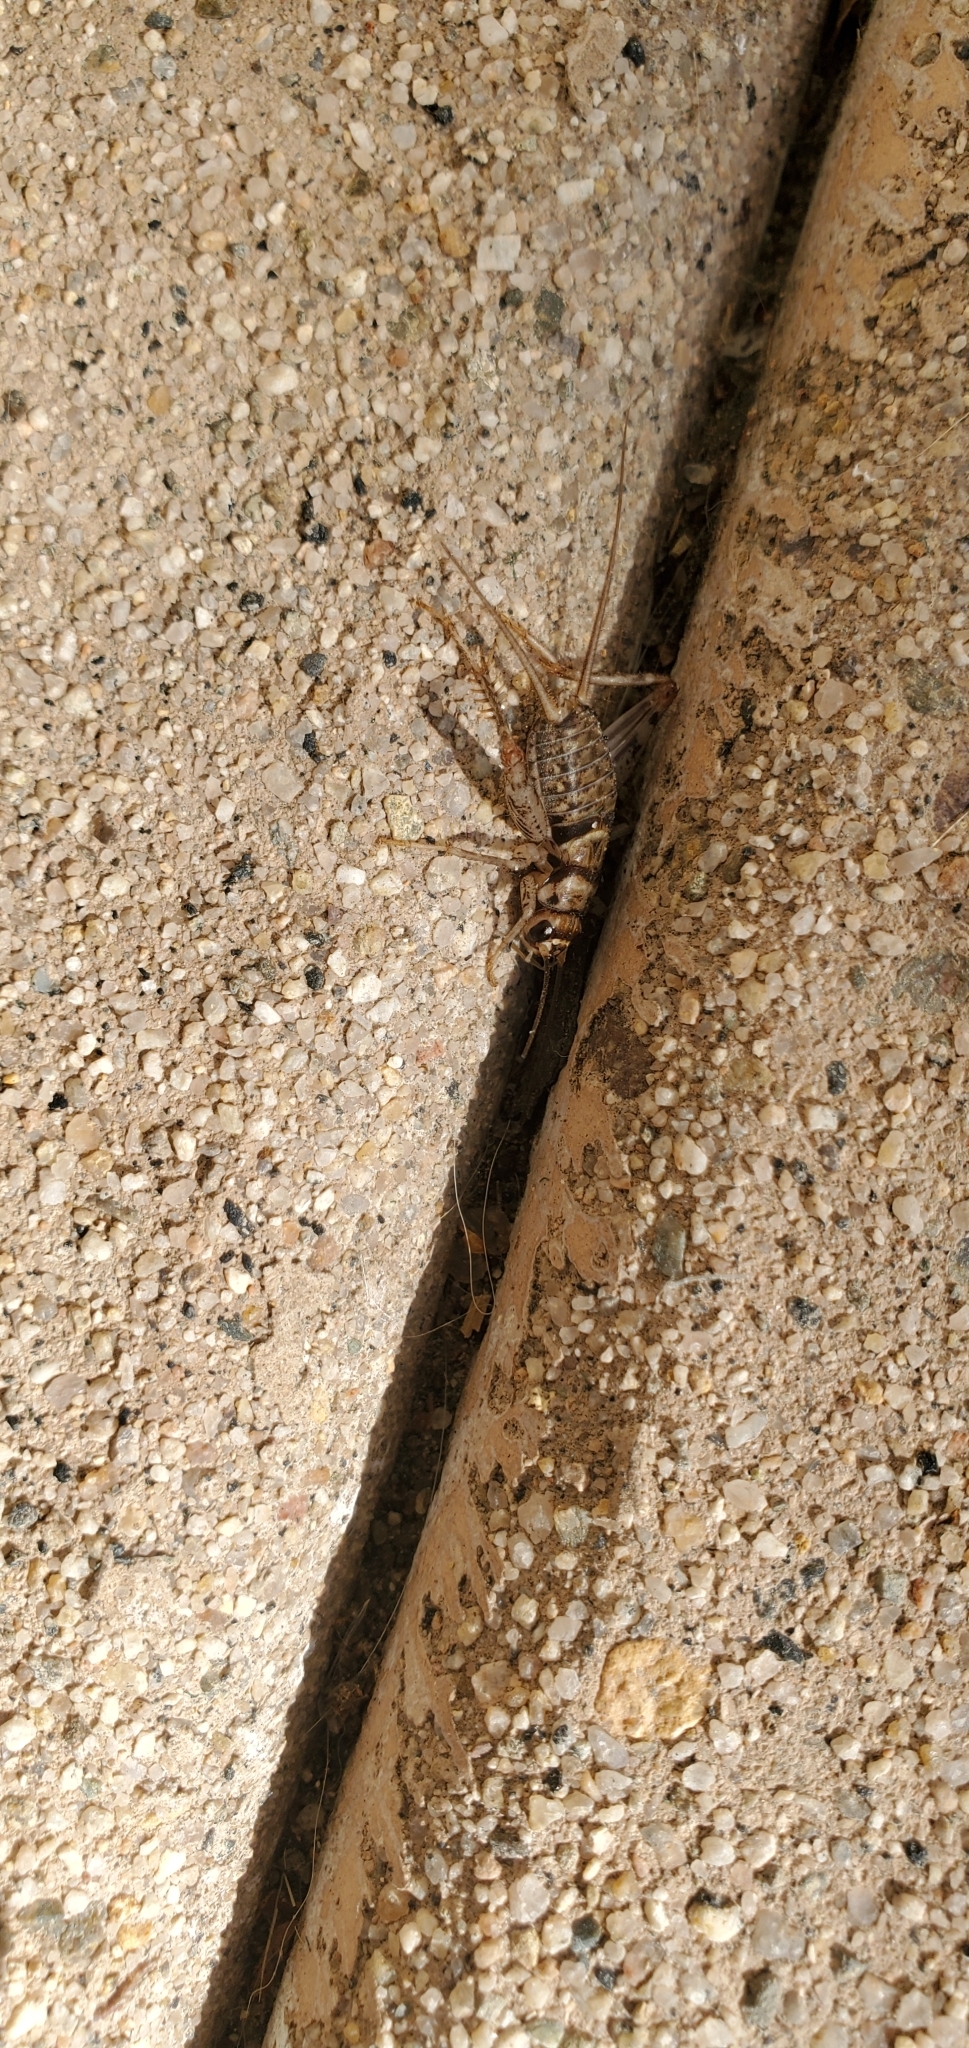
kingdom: Animalia
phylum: Arthropoda
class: Insecta
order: Orthoptera
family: Gryllidae
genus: Gryllodes
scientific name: Gryllodes sigillatus
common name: Tropical house cricket
